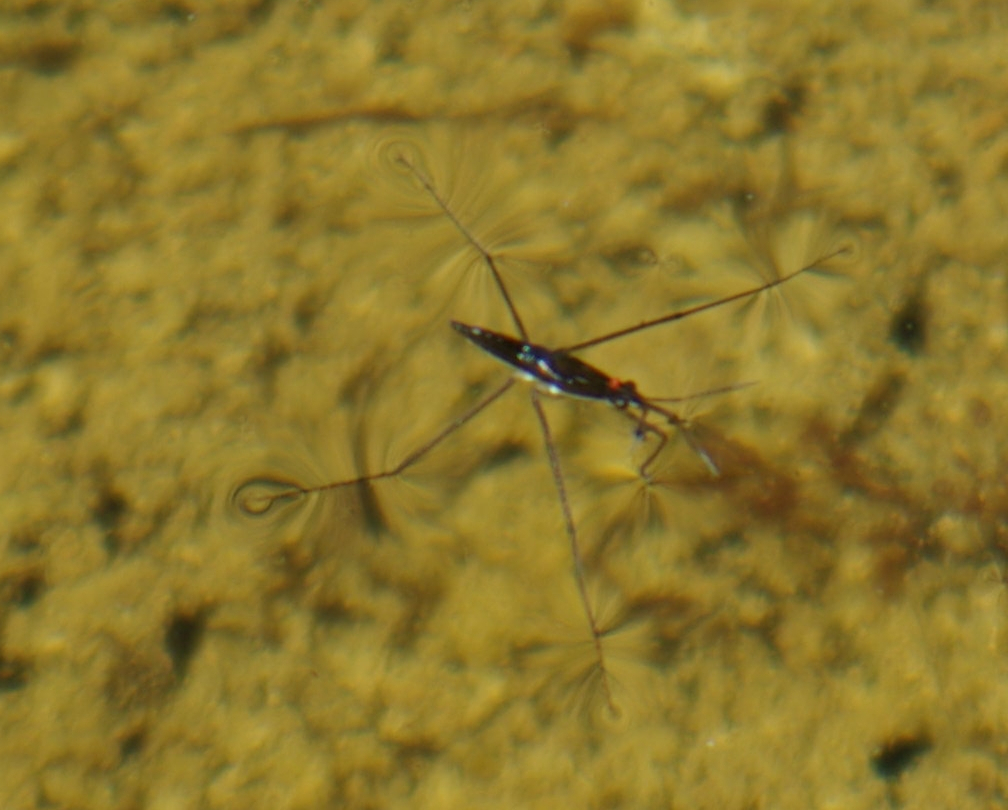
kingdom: Animalia
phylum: Arthropoda
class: Insecta
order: Hemiptera
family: Gerridae
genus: Limnoporus
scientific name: Limnoporus dissortis
